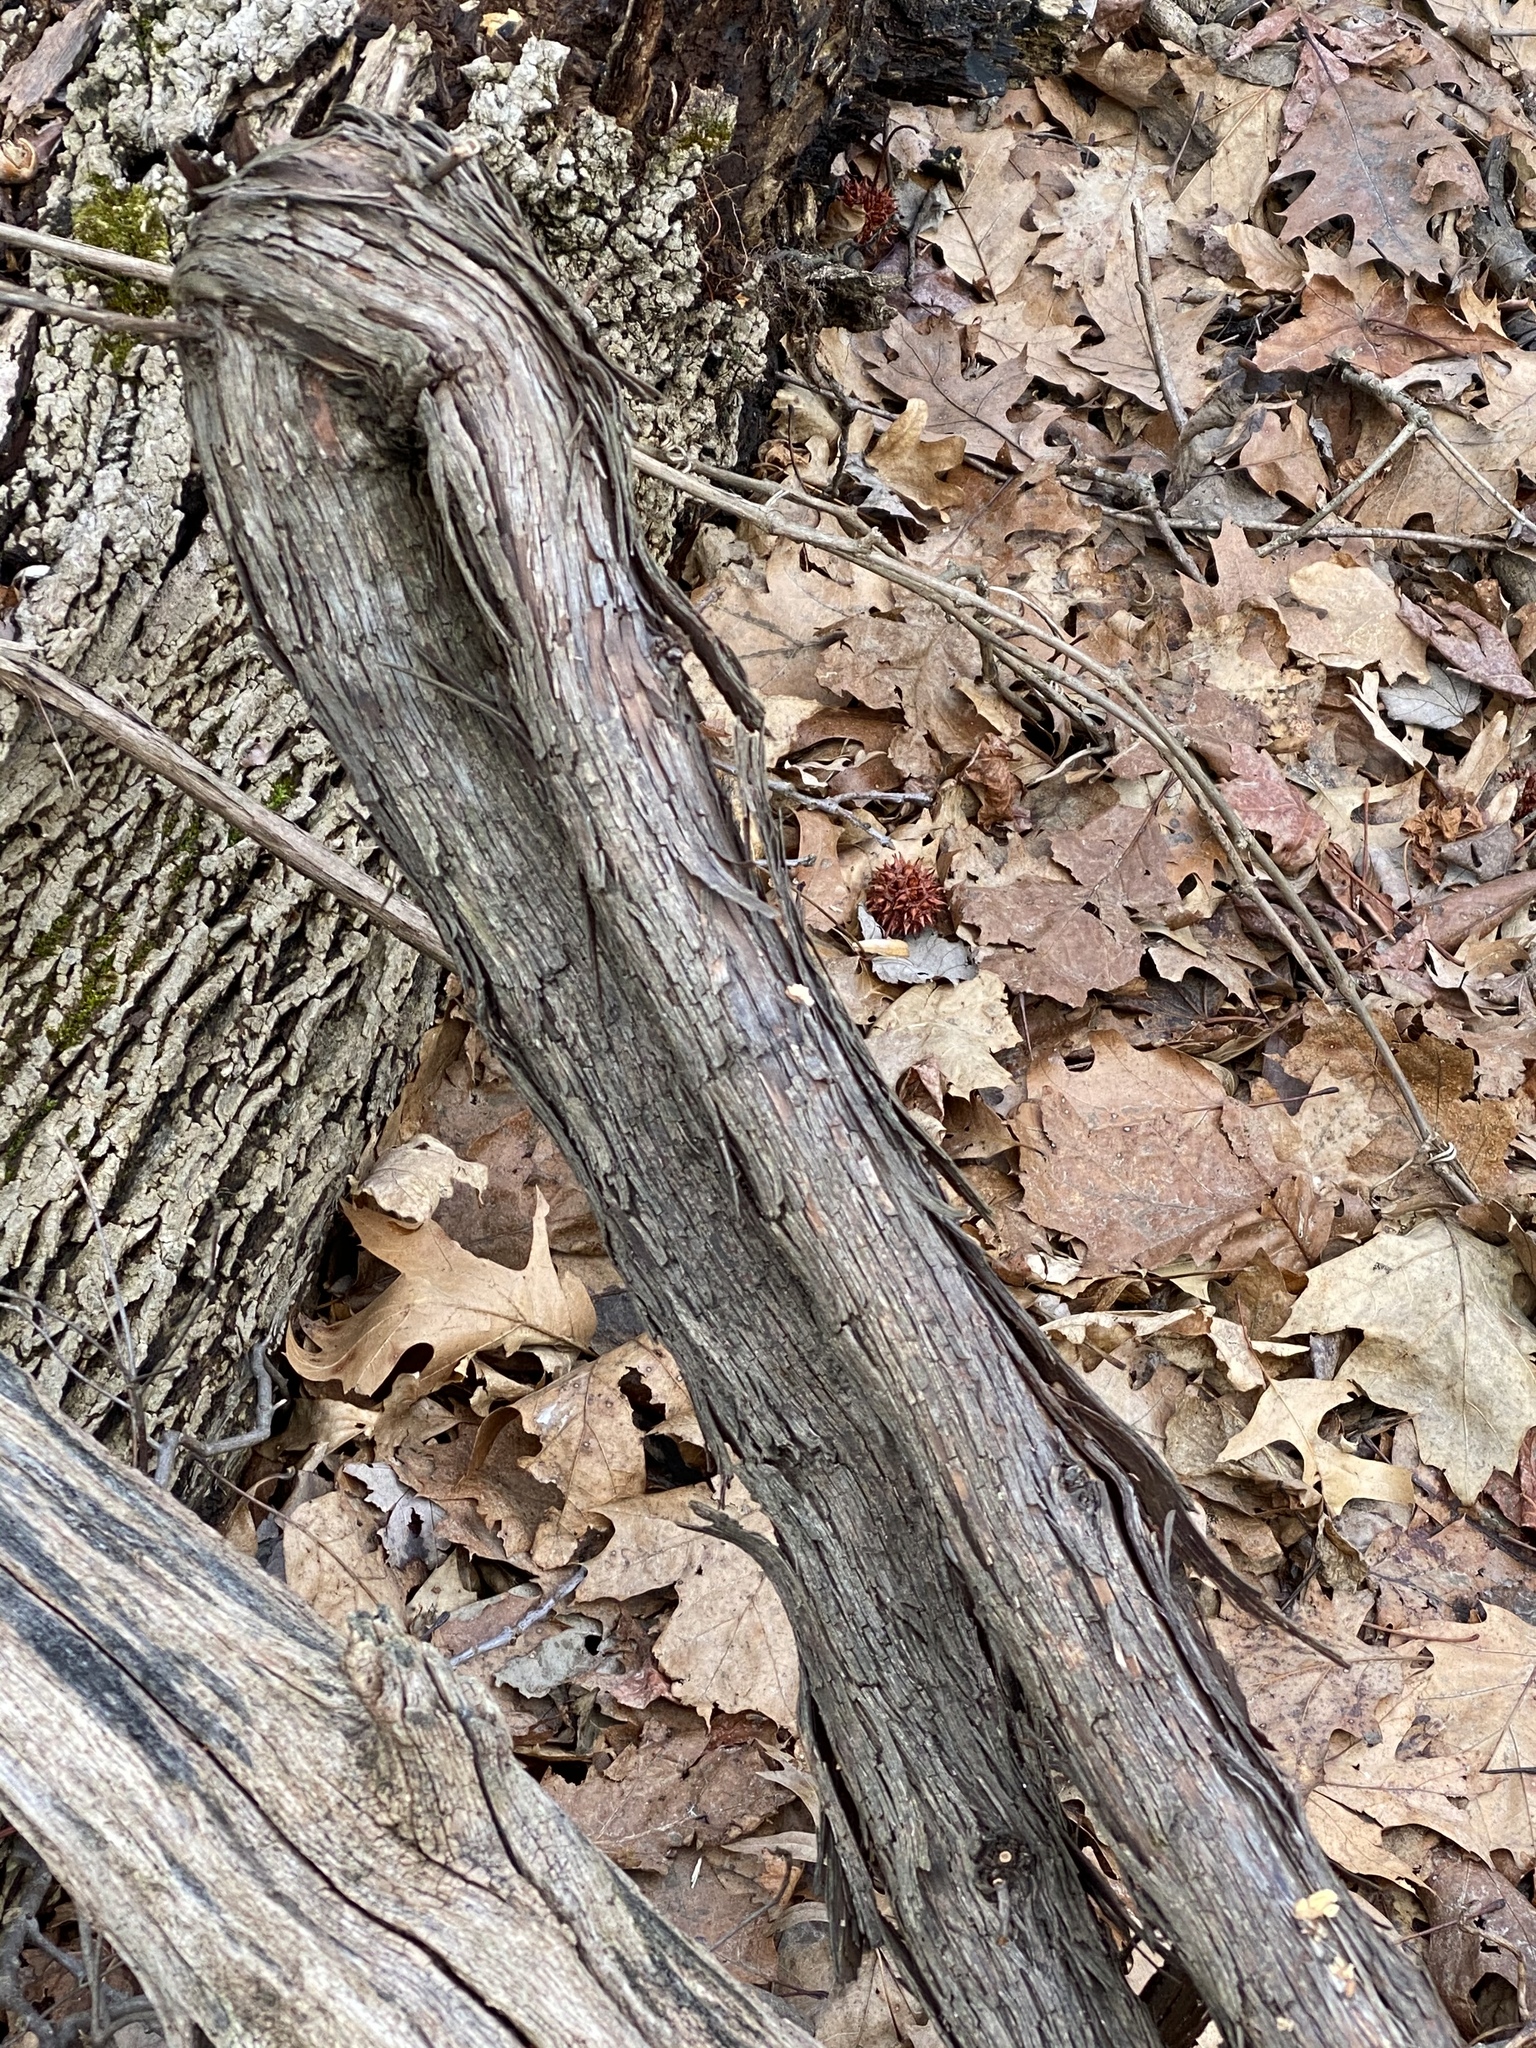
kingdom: Plantae
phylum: Tracheophyta
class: Magnoliopsida
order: Vitales
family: Vitaceae
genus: Vitis
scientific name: Vitis
